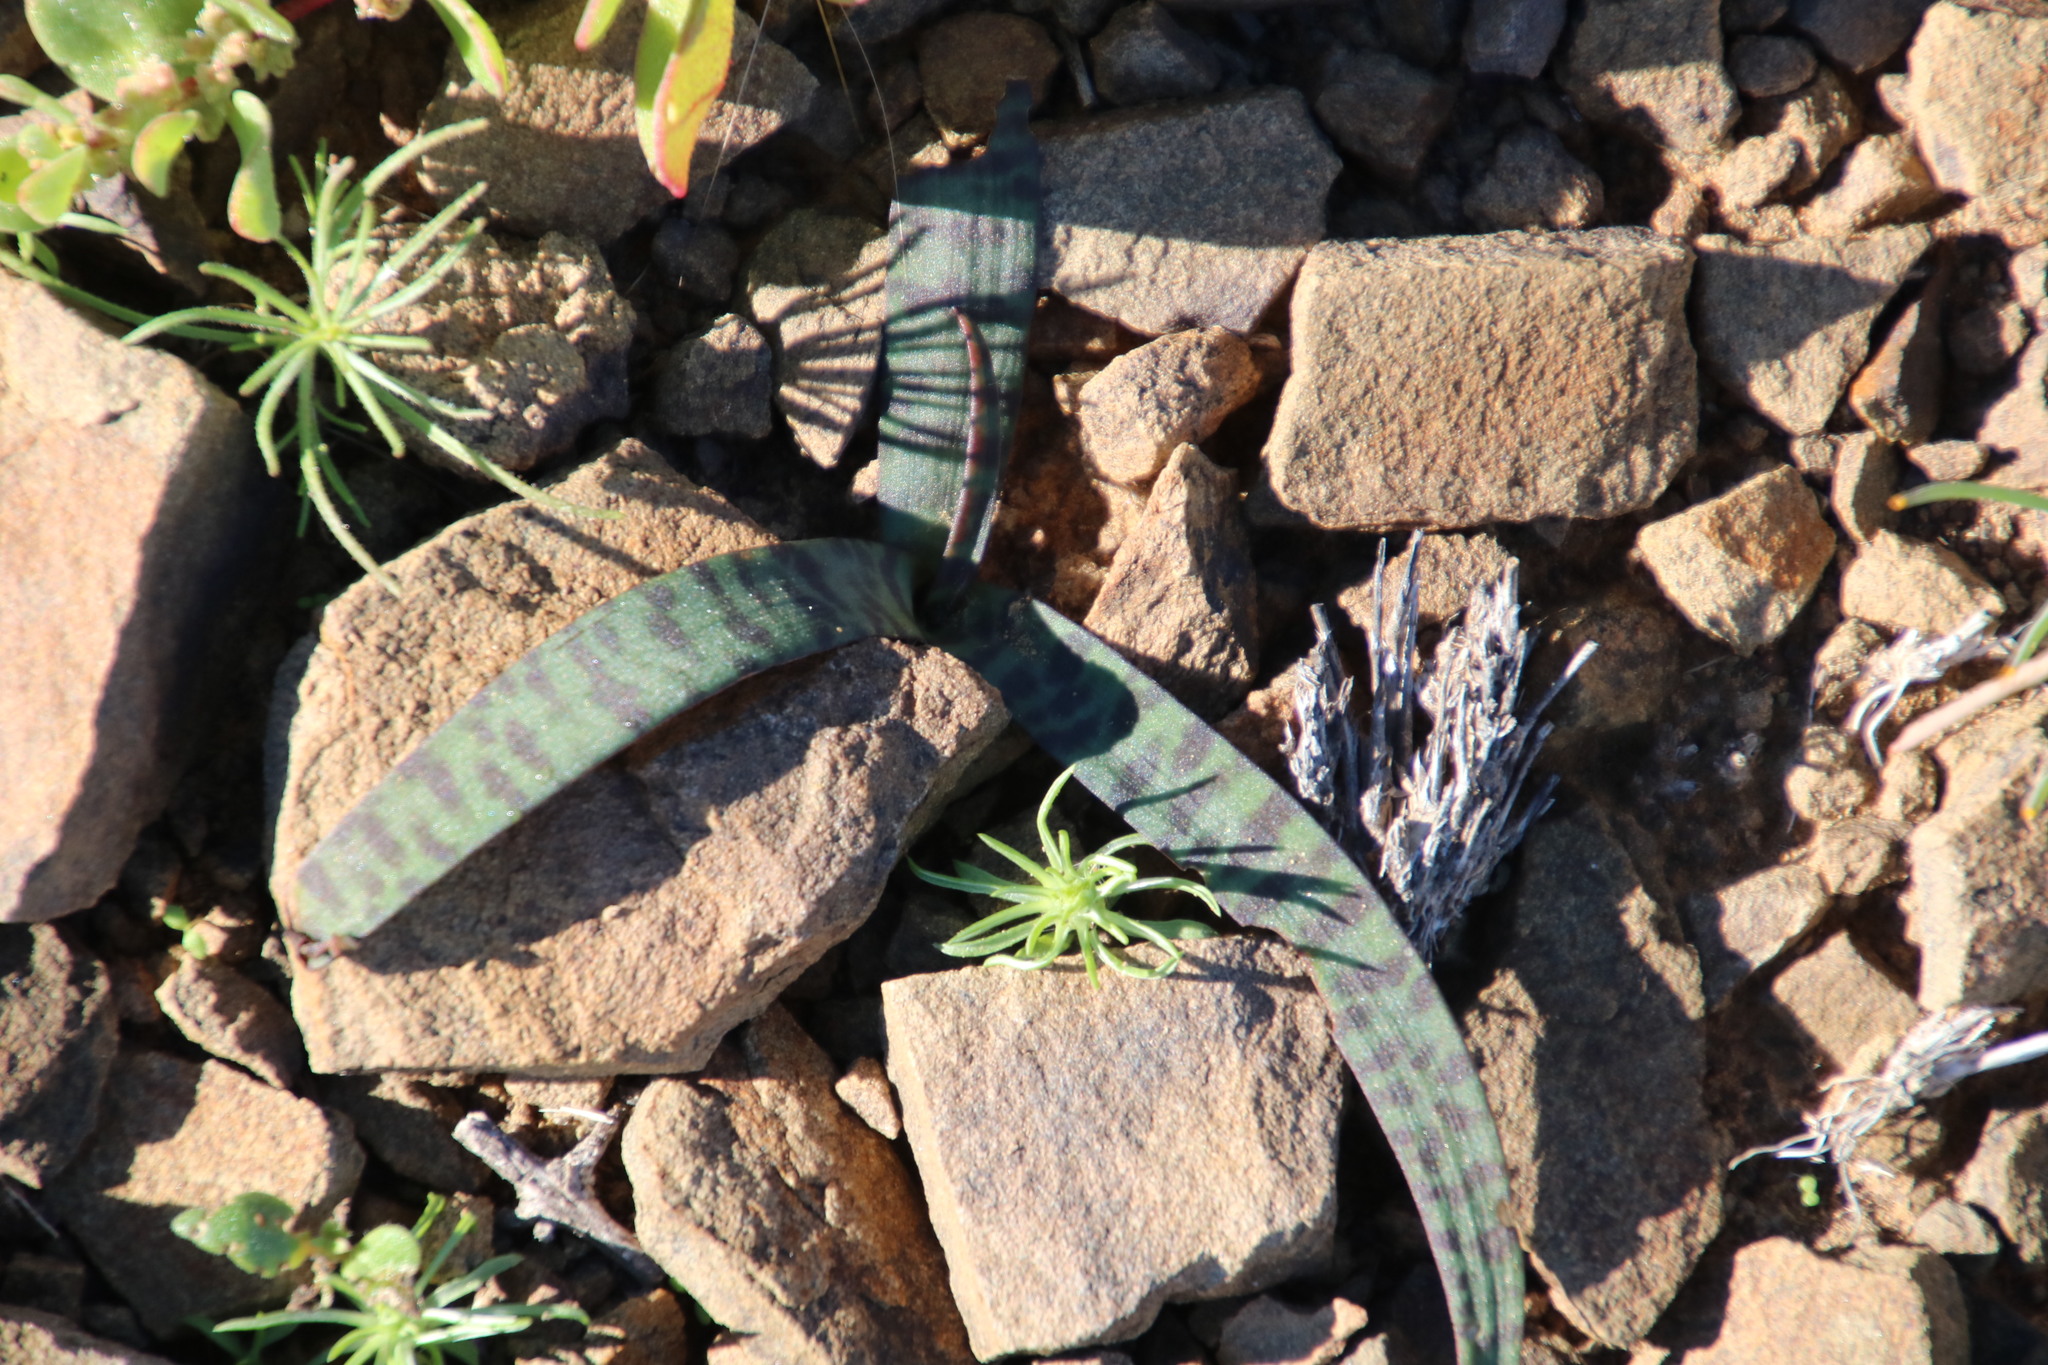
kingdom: Plantae
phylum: Tracheophyta
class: Liliopsida
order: Asparagales
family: Asparagaceae
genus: Ledebouria
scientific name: Ledebouria apertiflora
